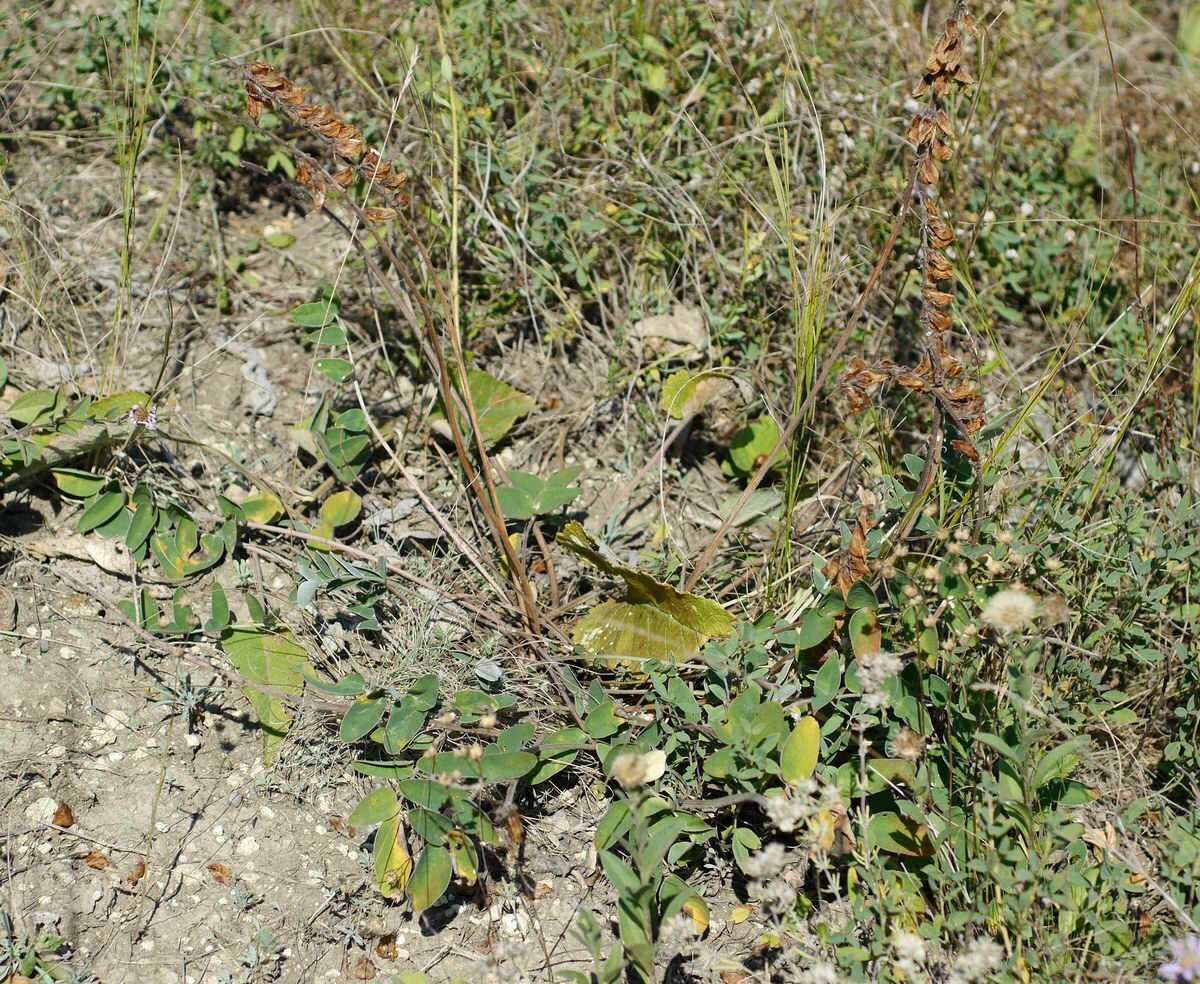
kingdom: Plantae
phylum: Tracheophyta
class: Magnoliopsida
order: Fabales
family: Fabaceae
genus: Hedysarum
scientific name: Hedysarum grandiflorum
